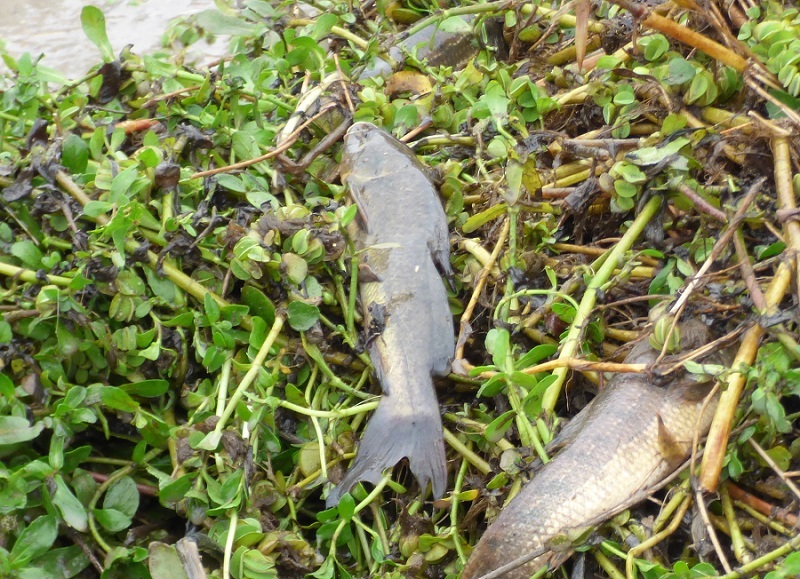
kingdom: Animalia
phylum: Chordata
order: Siluriformes
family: Heptapteridae
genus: Rhamdia
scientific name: Rhamdia quelen
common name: Catfish
